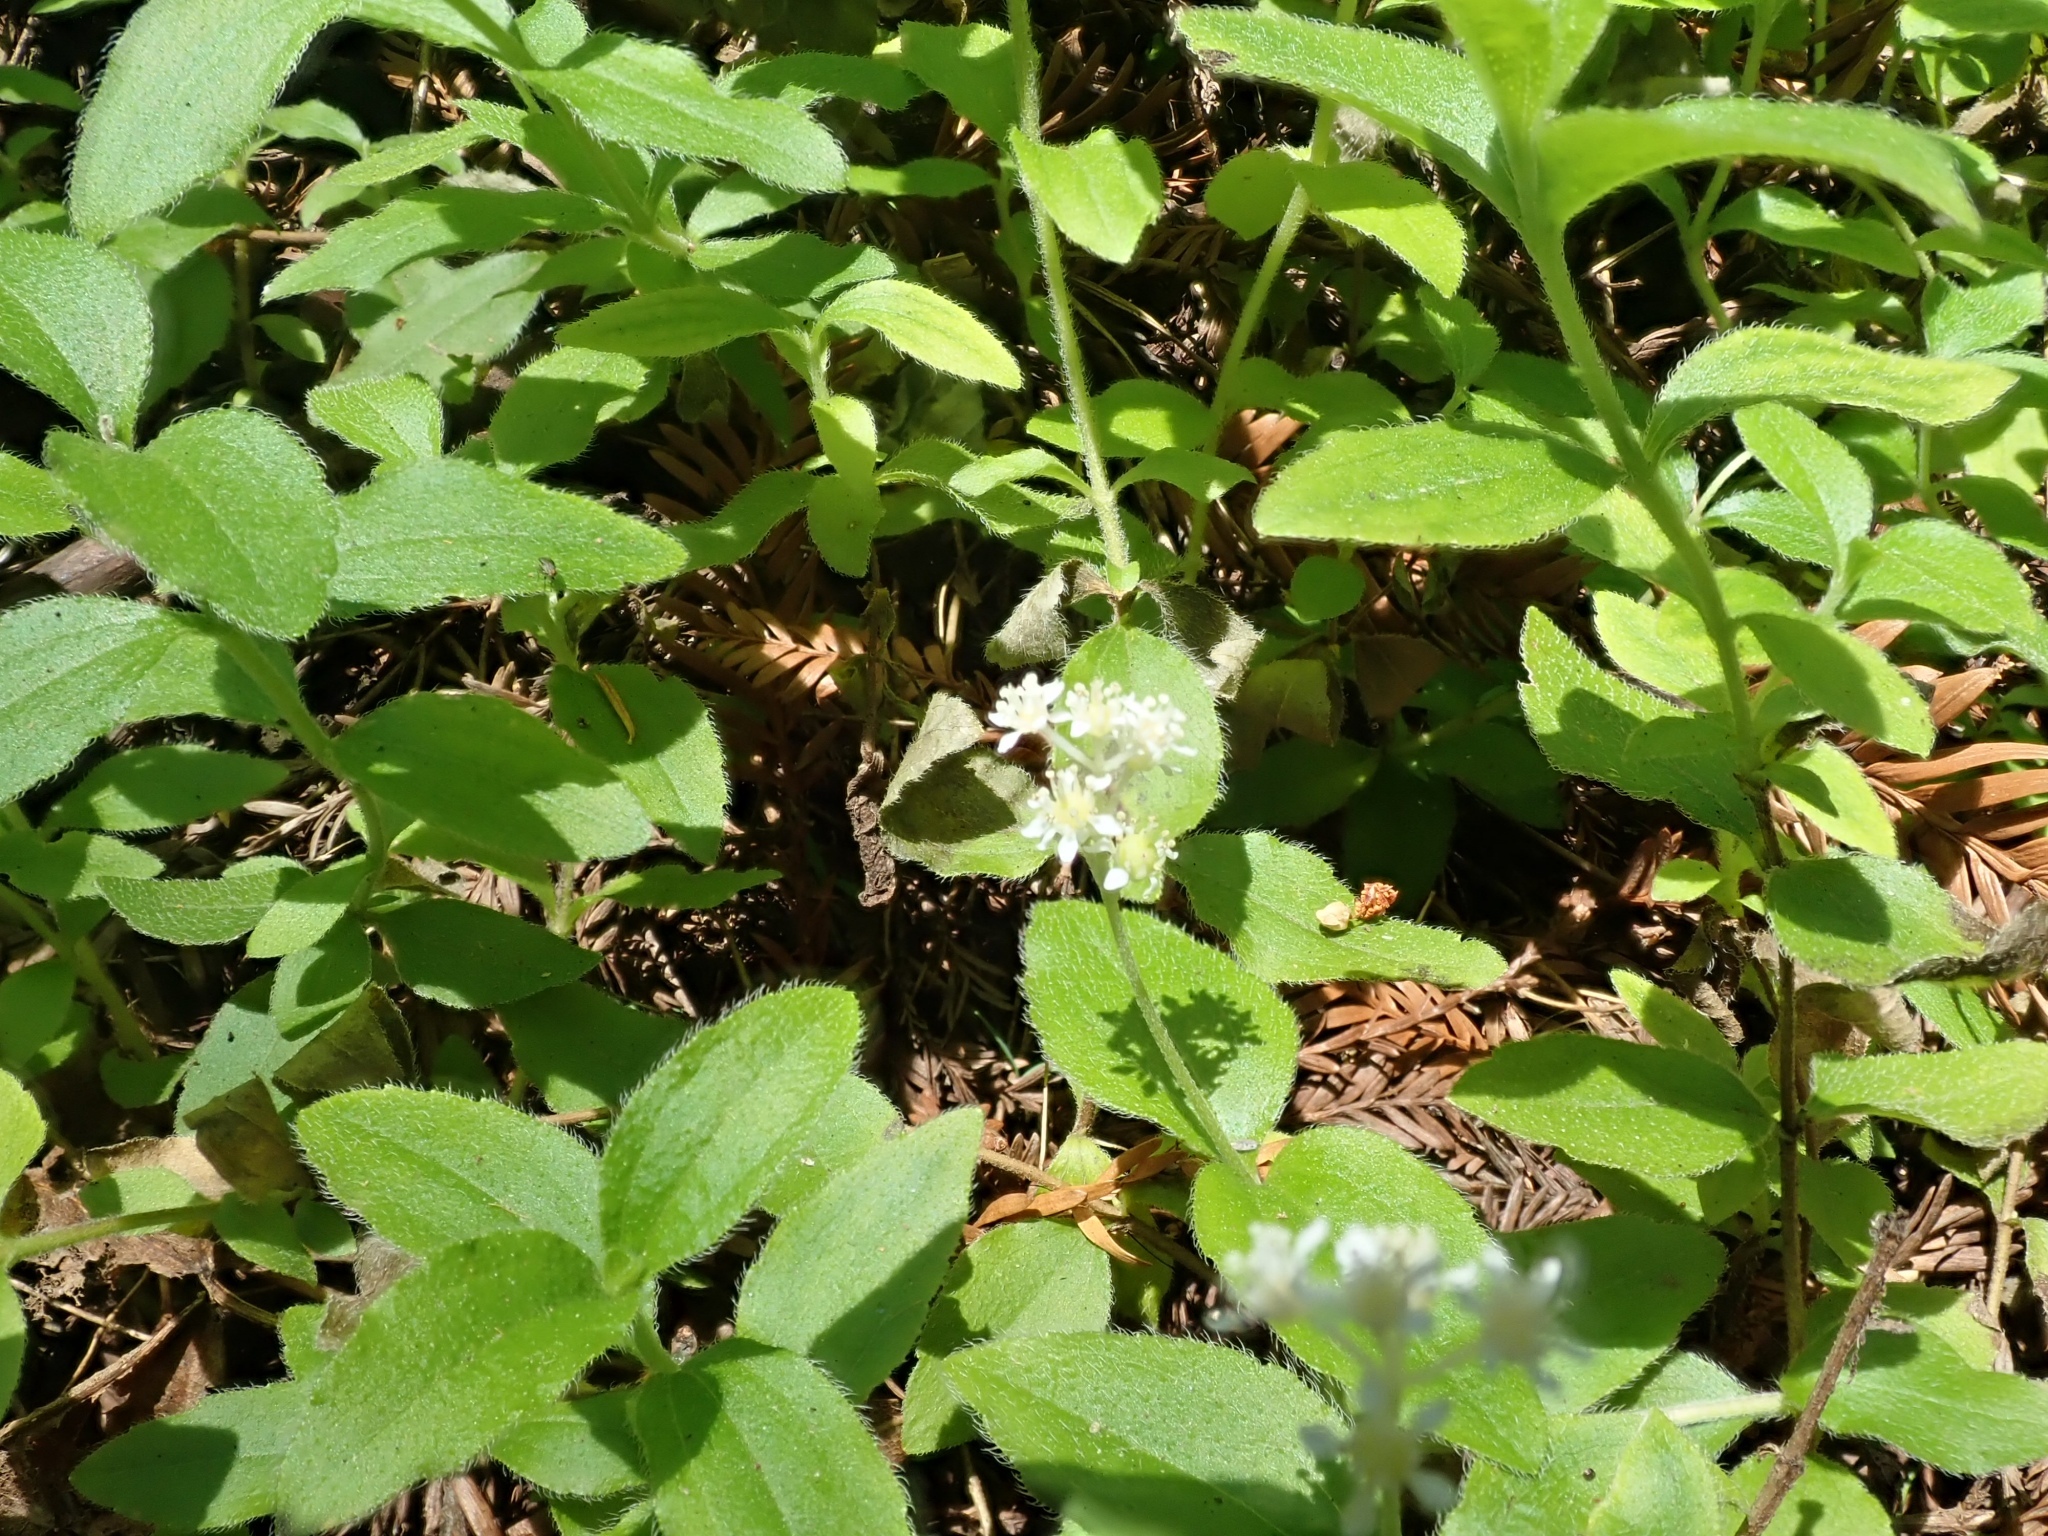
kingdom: Plantae
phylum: Tracheophyta
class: Magnoliopsida
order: Cornales
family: Hydrangeaceae
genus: Whipplea
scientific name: Whipplea modesta
